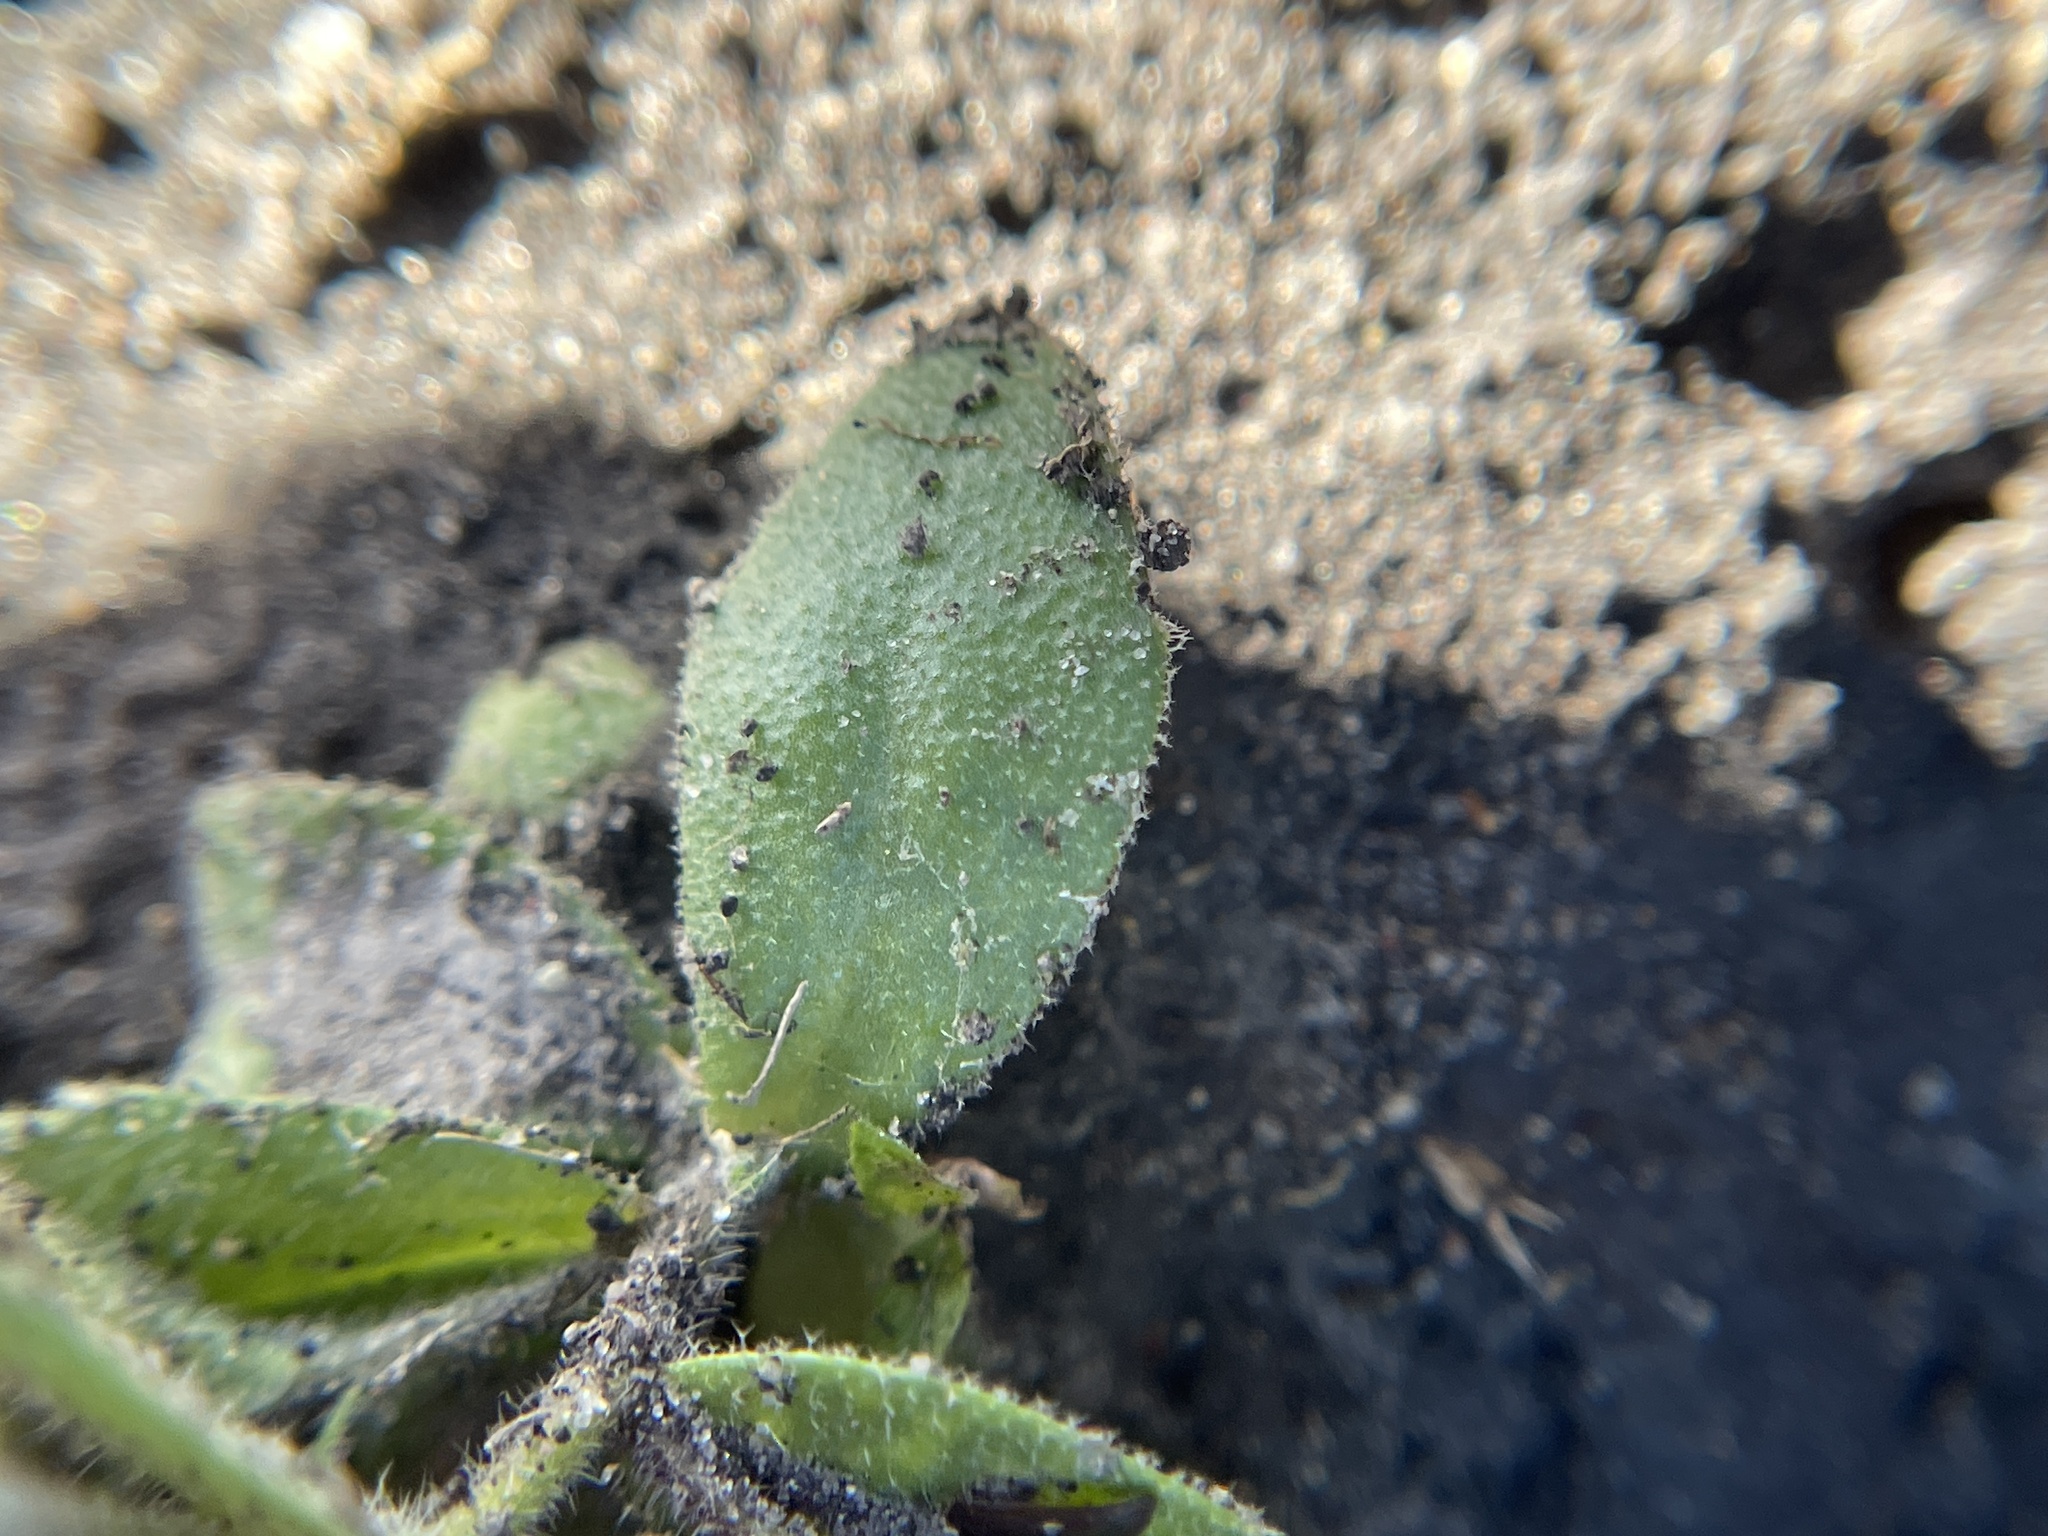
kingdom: Plantae
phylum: Tracheophyta
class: Magnoliopsida
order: Brassicales
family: Brassicaceae
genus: Tomostima
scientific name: Tomostima platycarpa
